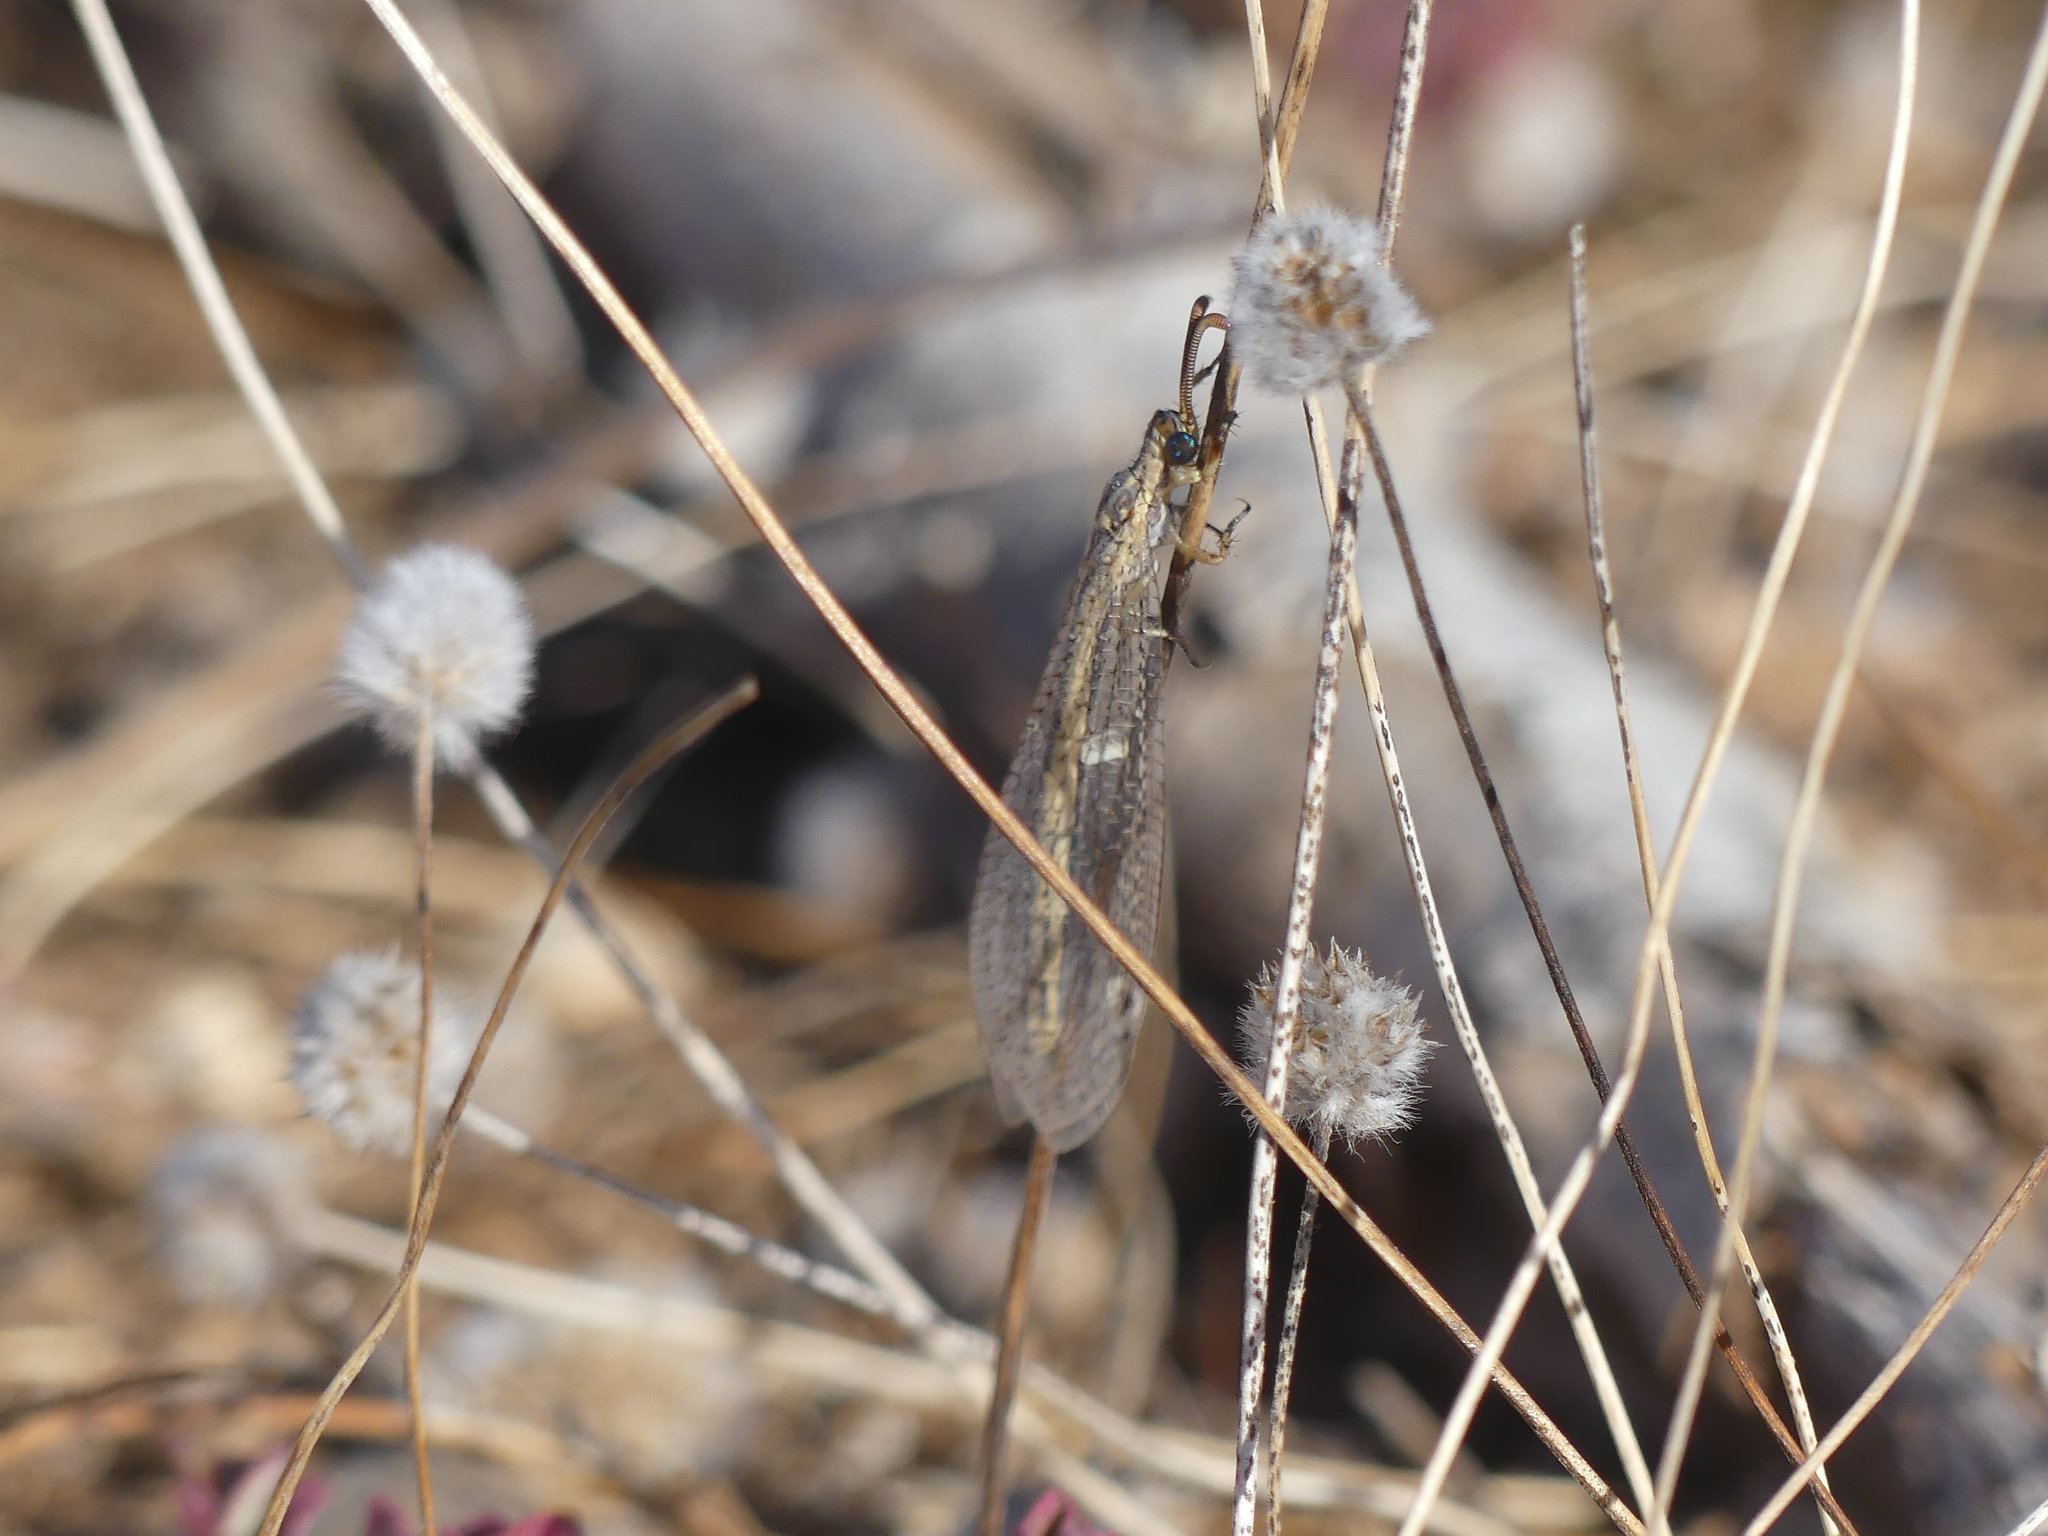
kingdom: Animalia
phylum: Arthropoda
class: Insecta
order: Neuroptera
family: Myrmeleontidae
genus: Macronemurus
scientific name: Macronemurus appendiculatus
